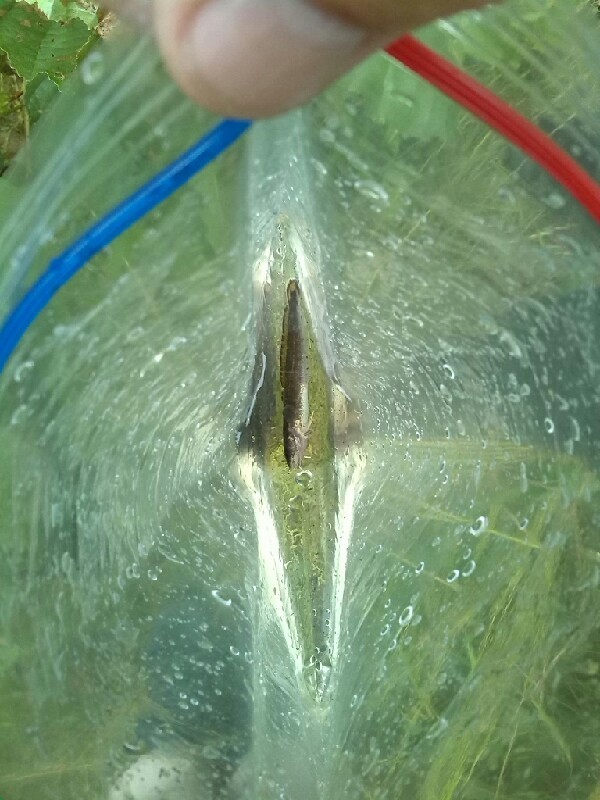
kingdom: Animalia
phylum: Chordata
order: Gadiformes
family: Lotidae
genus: Lota
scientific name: Lota lota
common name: Burbot
